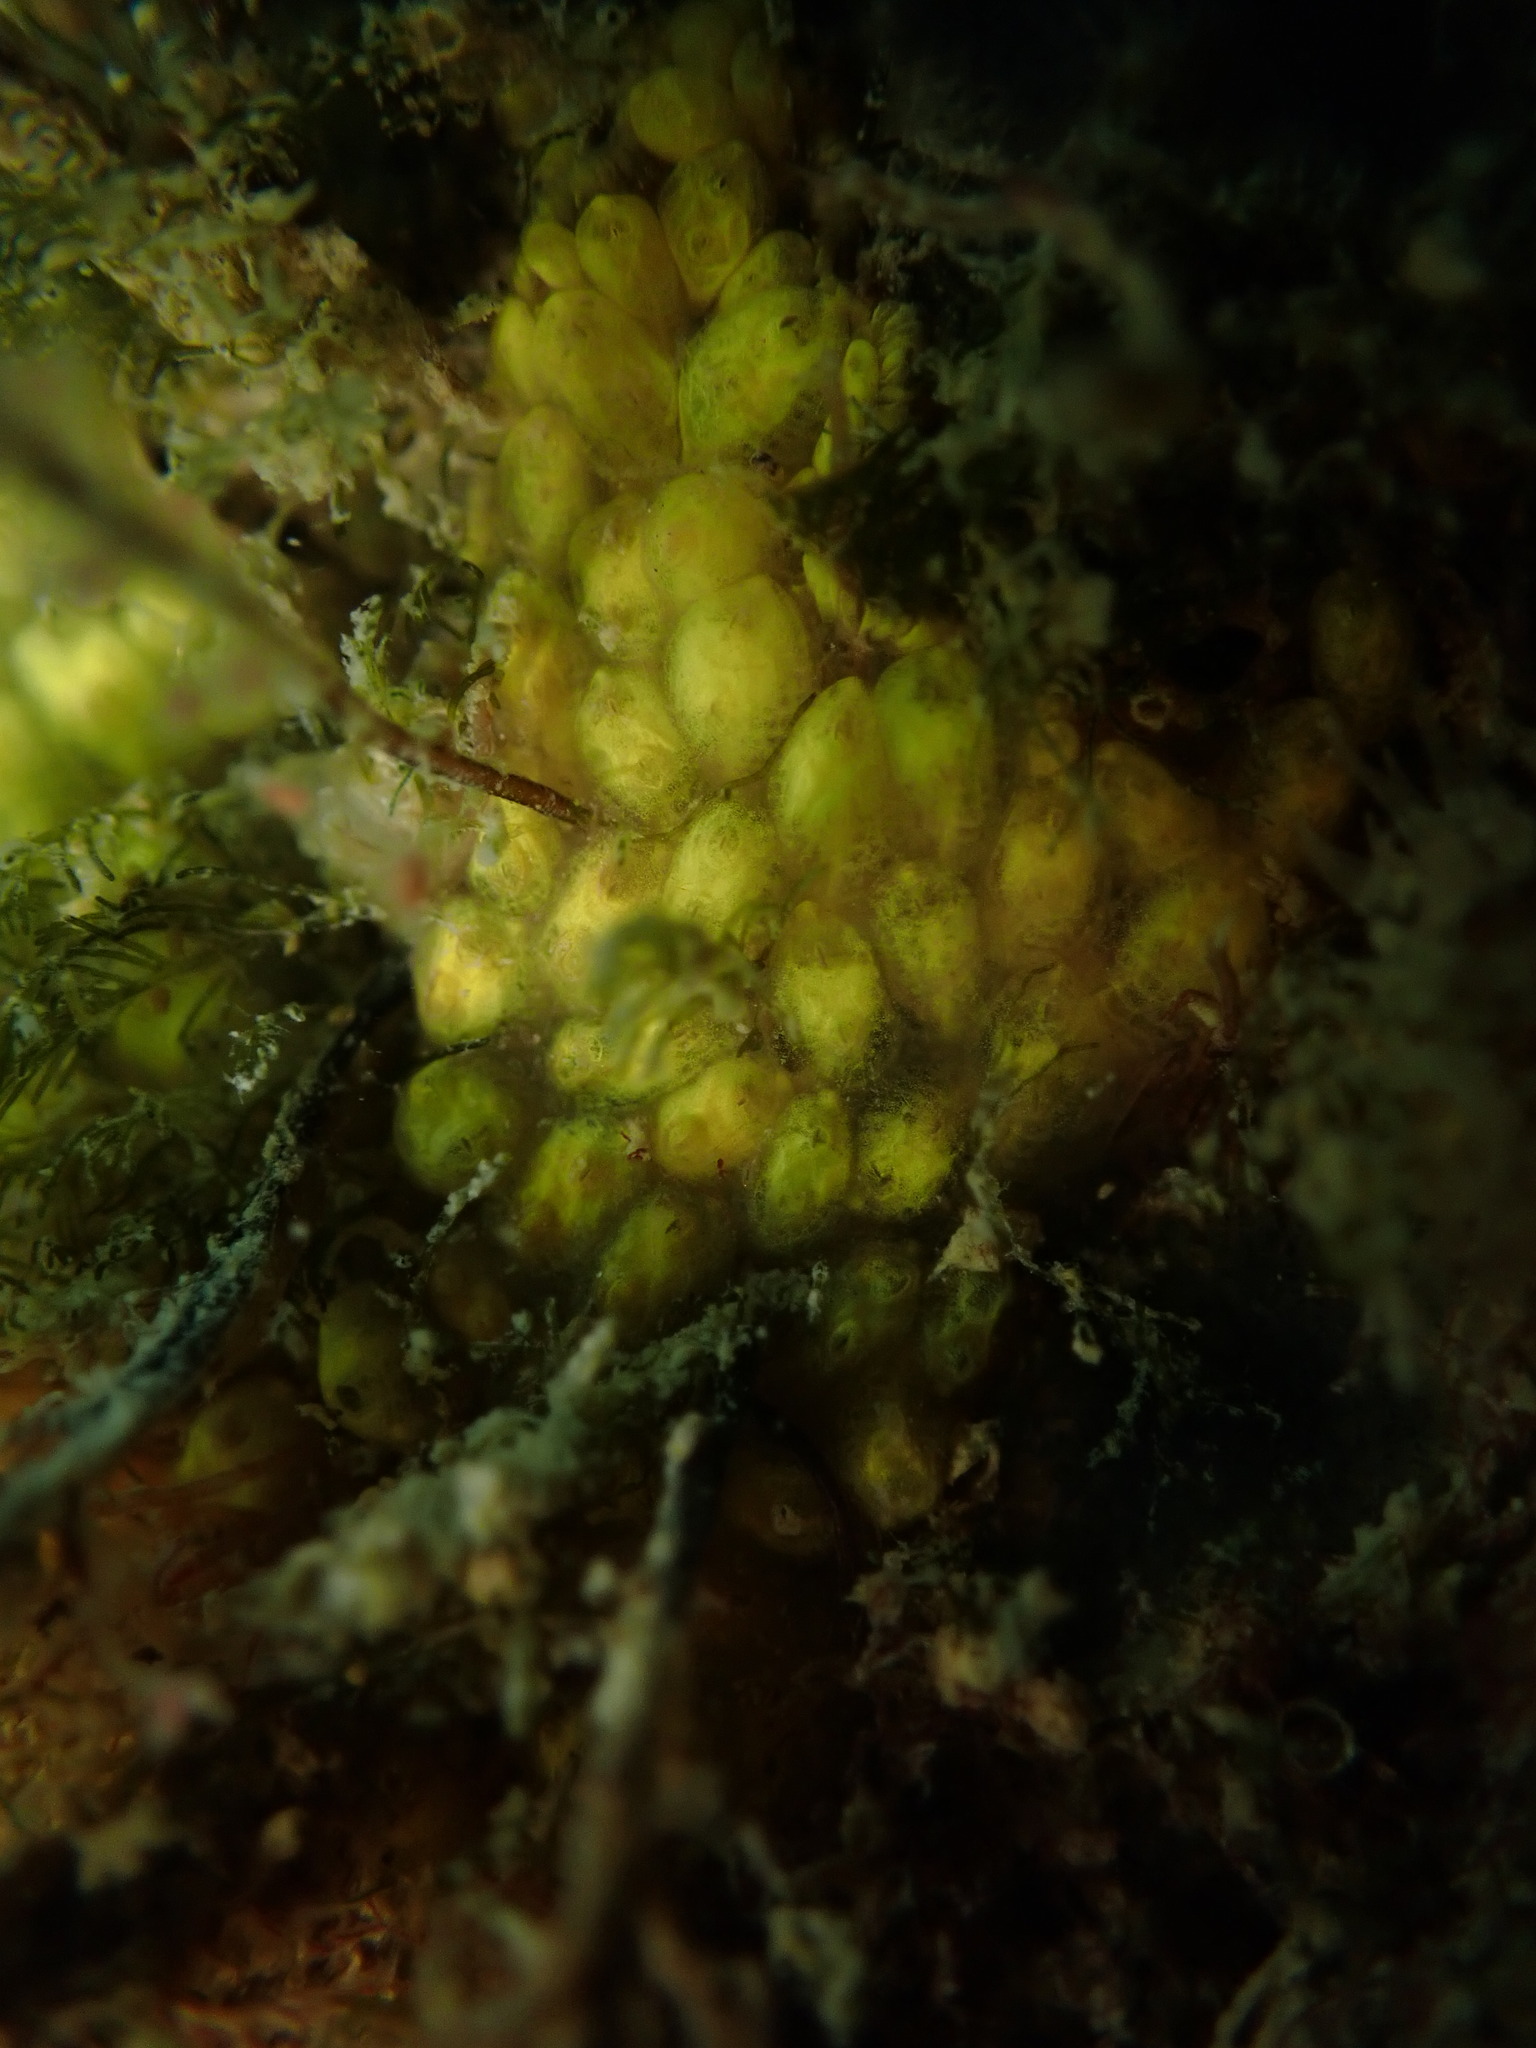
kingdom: Animalia
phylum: Chordata
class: Ascidiacea
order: Stolidobranchia
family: Styelidae
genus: Symplegma
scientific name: Symplegma brakenhielmi
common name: Ascidian
